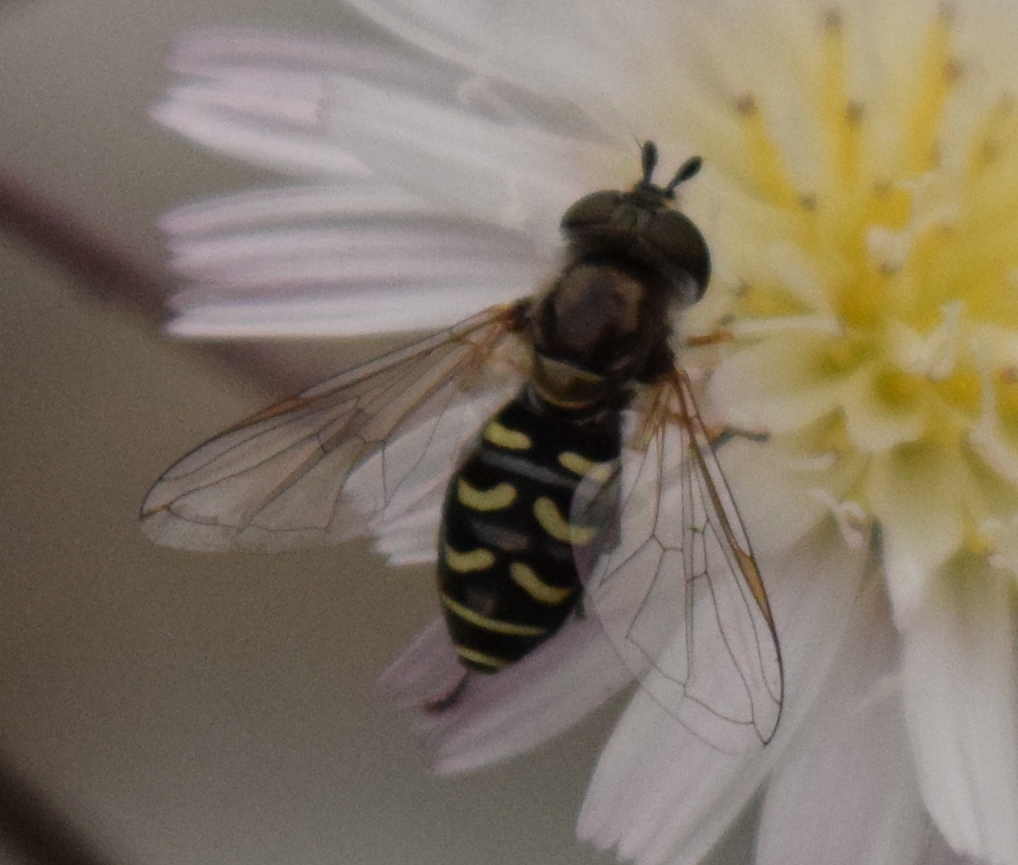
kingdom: Animalia
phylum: Arthropoda
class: Insecta
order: Diptera
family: Syrphidae
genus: Eupeodes
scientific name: Eupeodes volucris
